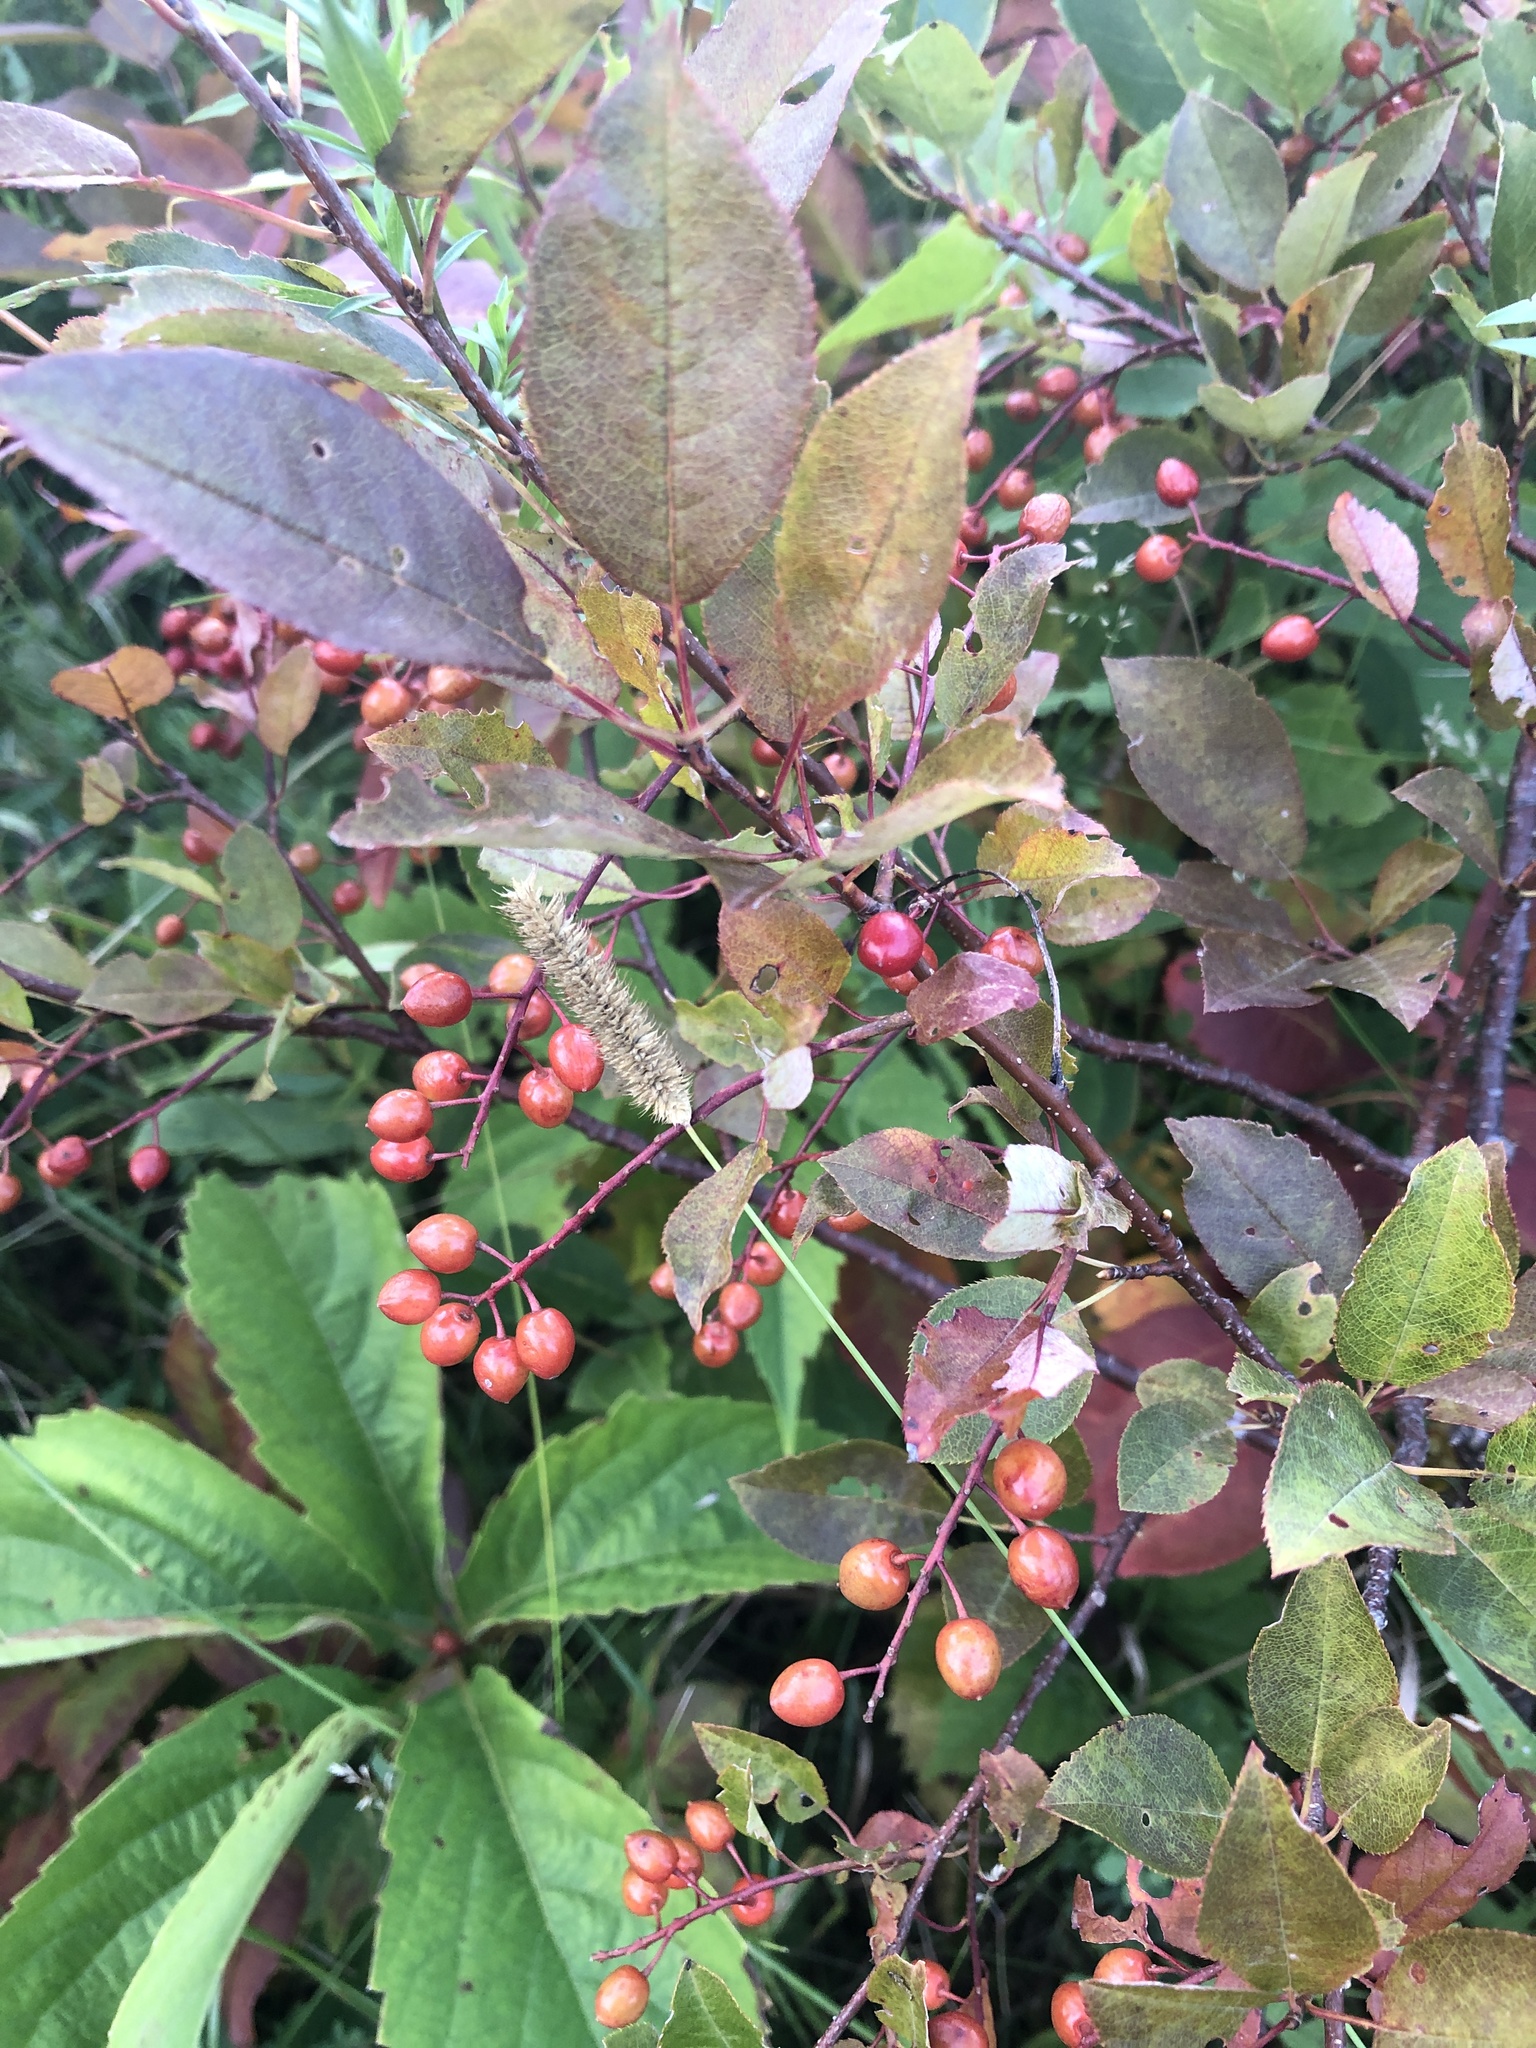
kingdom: Plantae
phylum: Tracheophyta
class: Magnoliopsida
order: Rosales
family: Rosaceae
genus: Prunus
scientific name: Prunus virginiana
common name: Chokecherry
